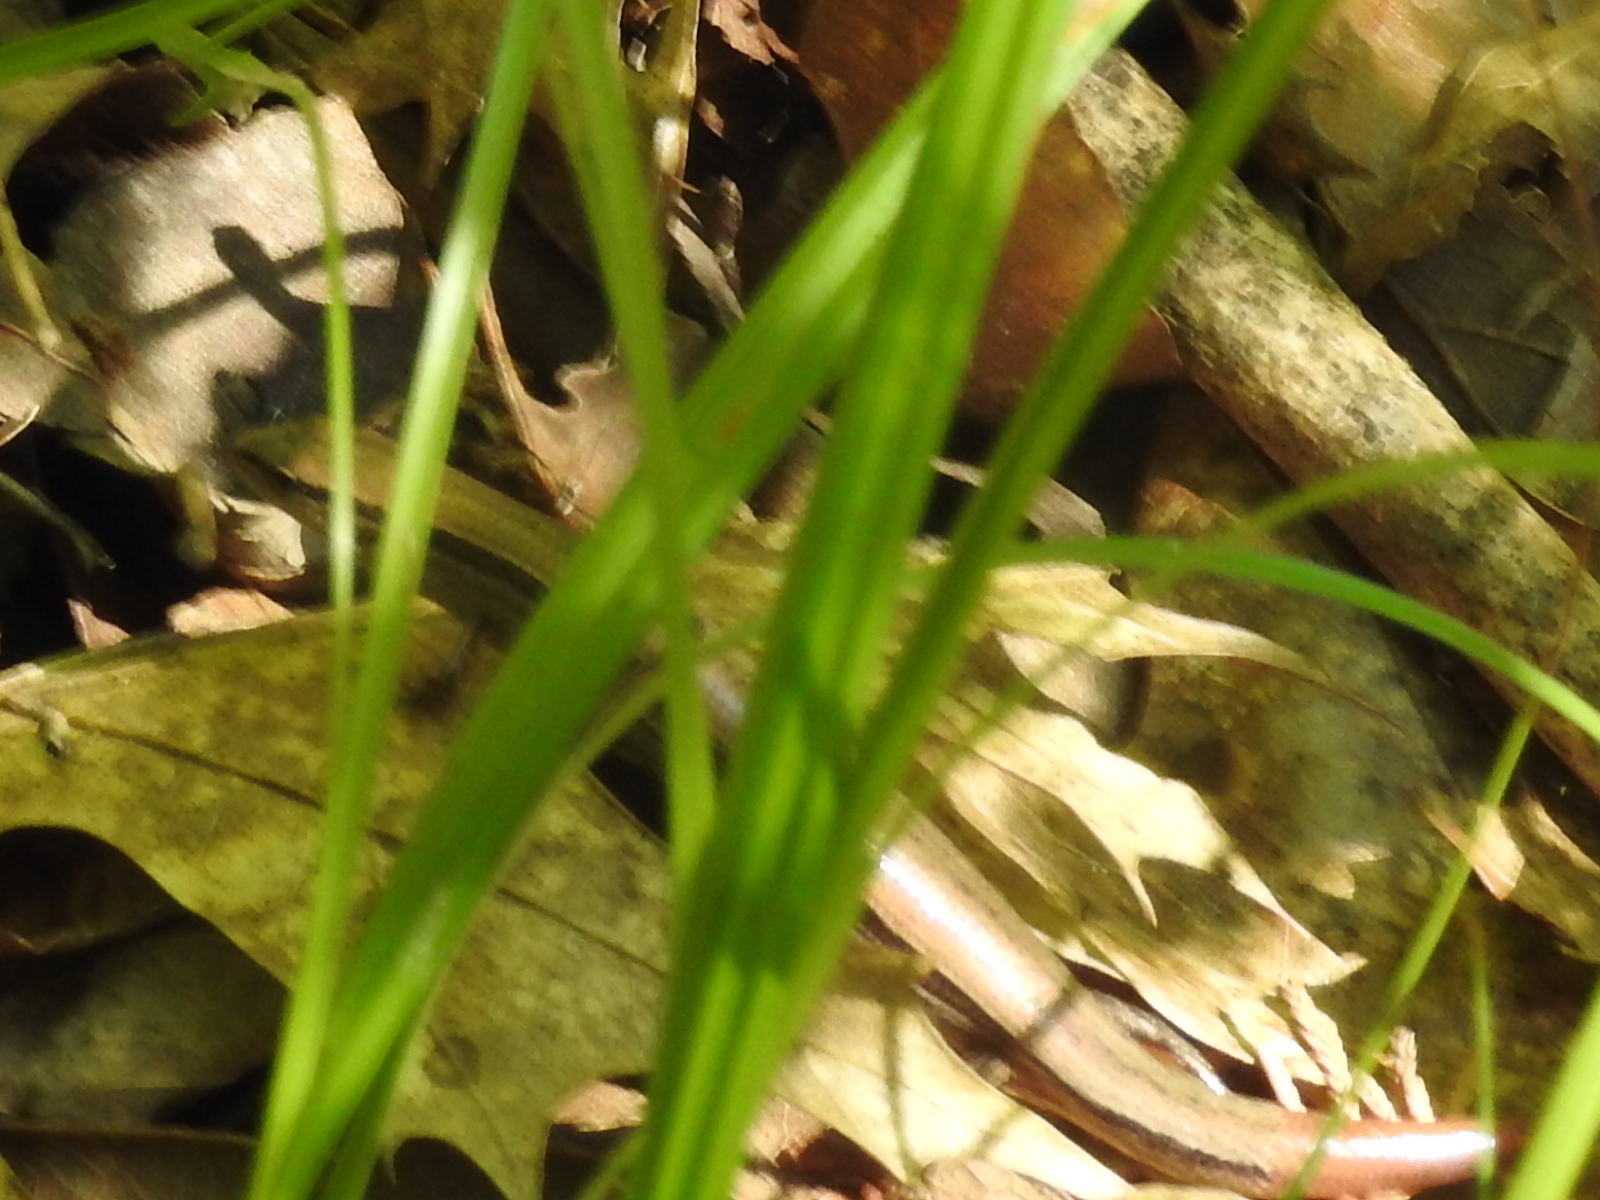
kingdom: Animalia
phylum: Chordata
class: Squamata
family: Scincidae
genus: Scincella
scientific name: Scincella lateralis
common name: Ground skink
